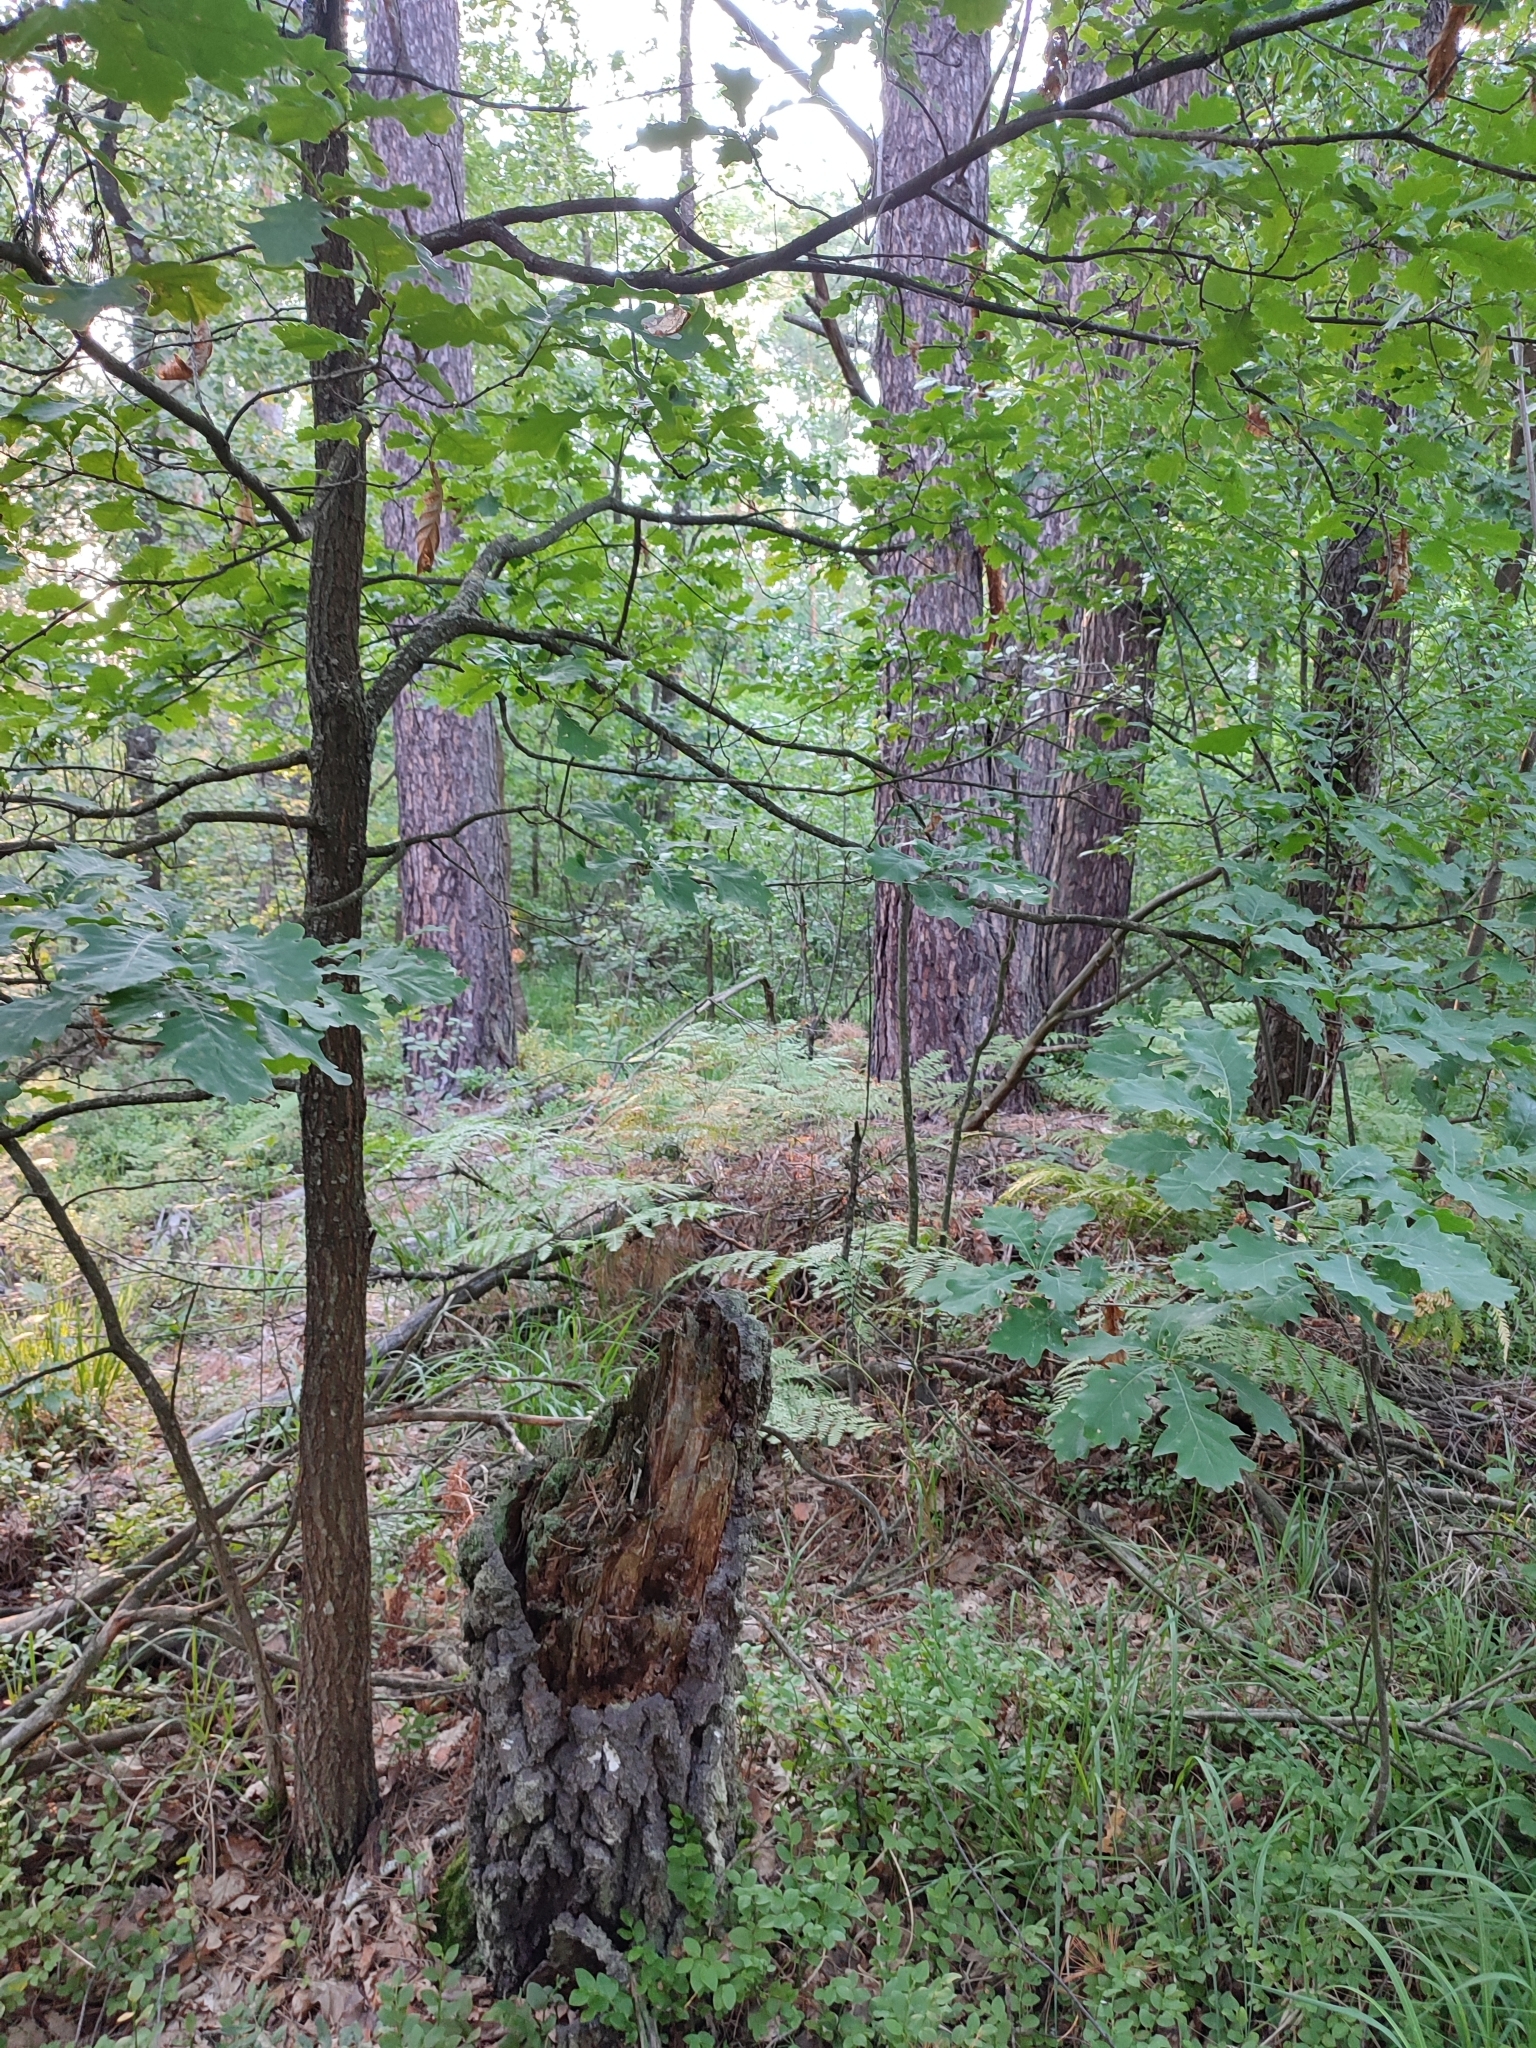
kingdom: Plantae
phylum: Tracheophyta
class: Magnoliopsida
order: Fagales
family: Fagaceae
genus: Quercus
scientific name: Quercus robur
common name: Pedunculate oak
